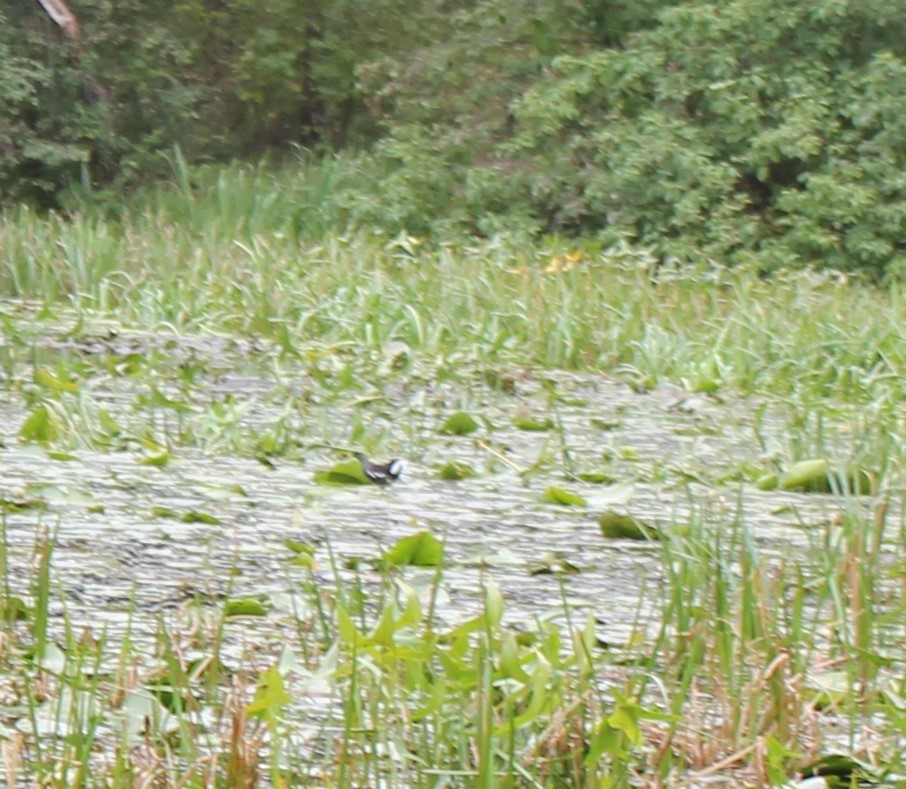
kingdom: Animalia
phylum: Chordata
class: Aves
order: Gruiformes
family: Rallidae
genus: Gallinula
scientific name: Gallinula chloropus
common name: Common moorhen
